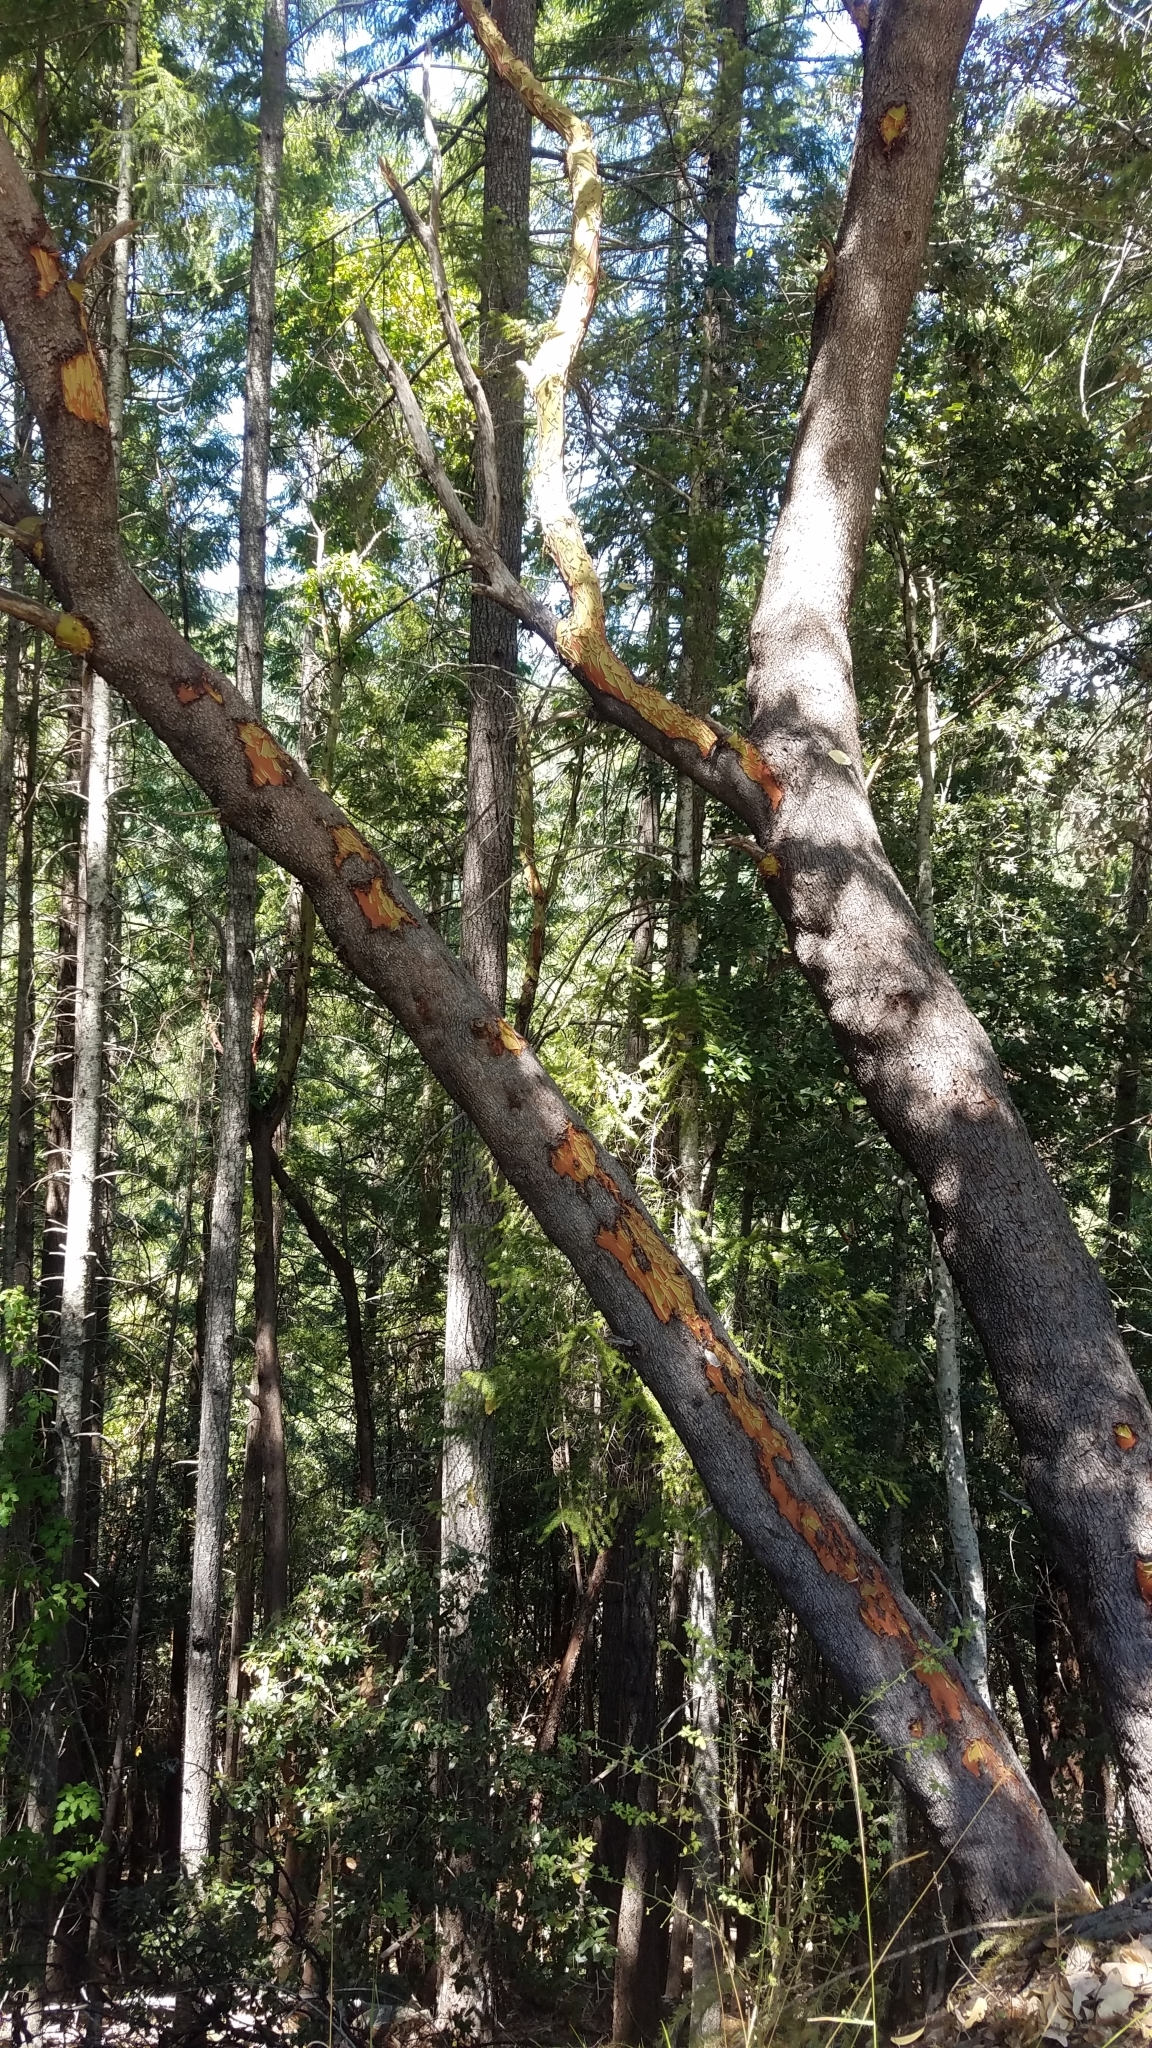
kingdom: Plantae
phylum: Tracheophyta
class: Magnoliopsida
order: Ericales
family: Ericaceae
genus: Arbutus
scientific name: Arbutus menziesii
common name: Pacific madrone
